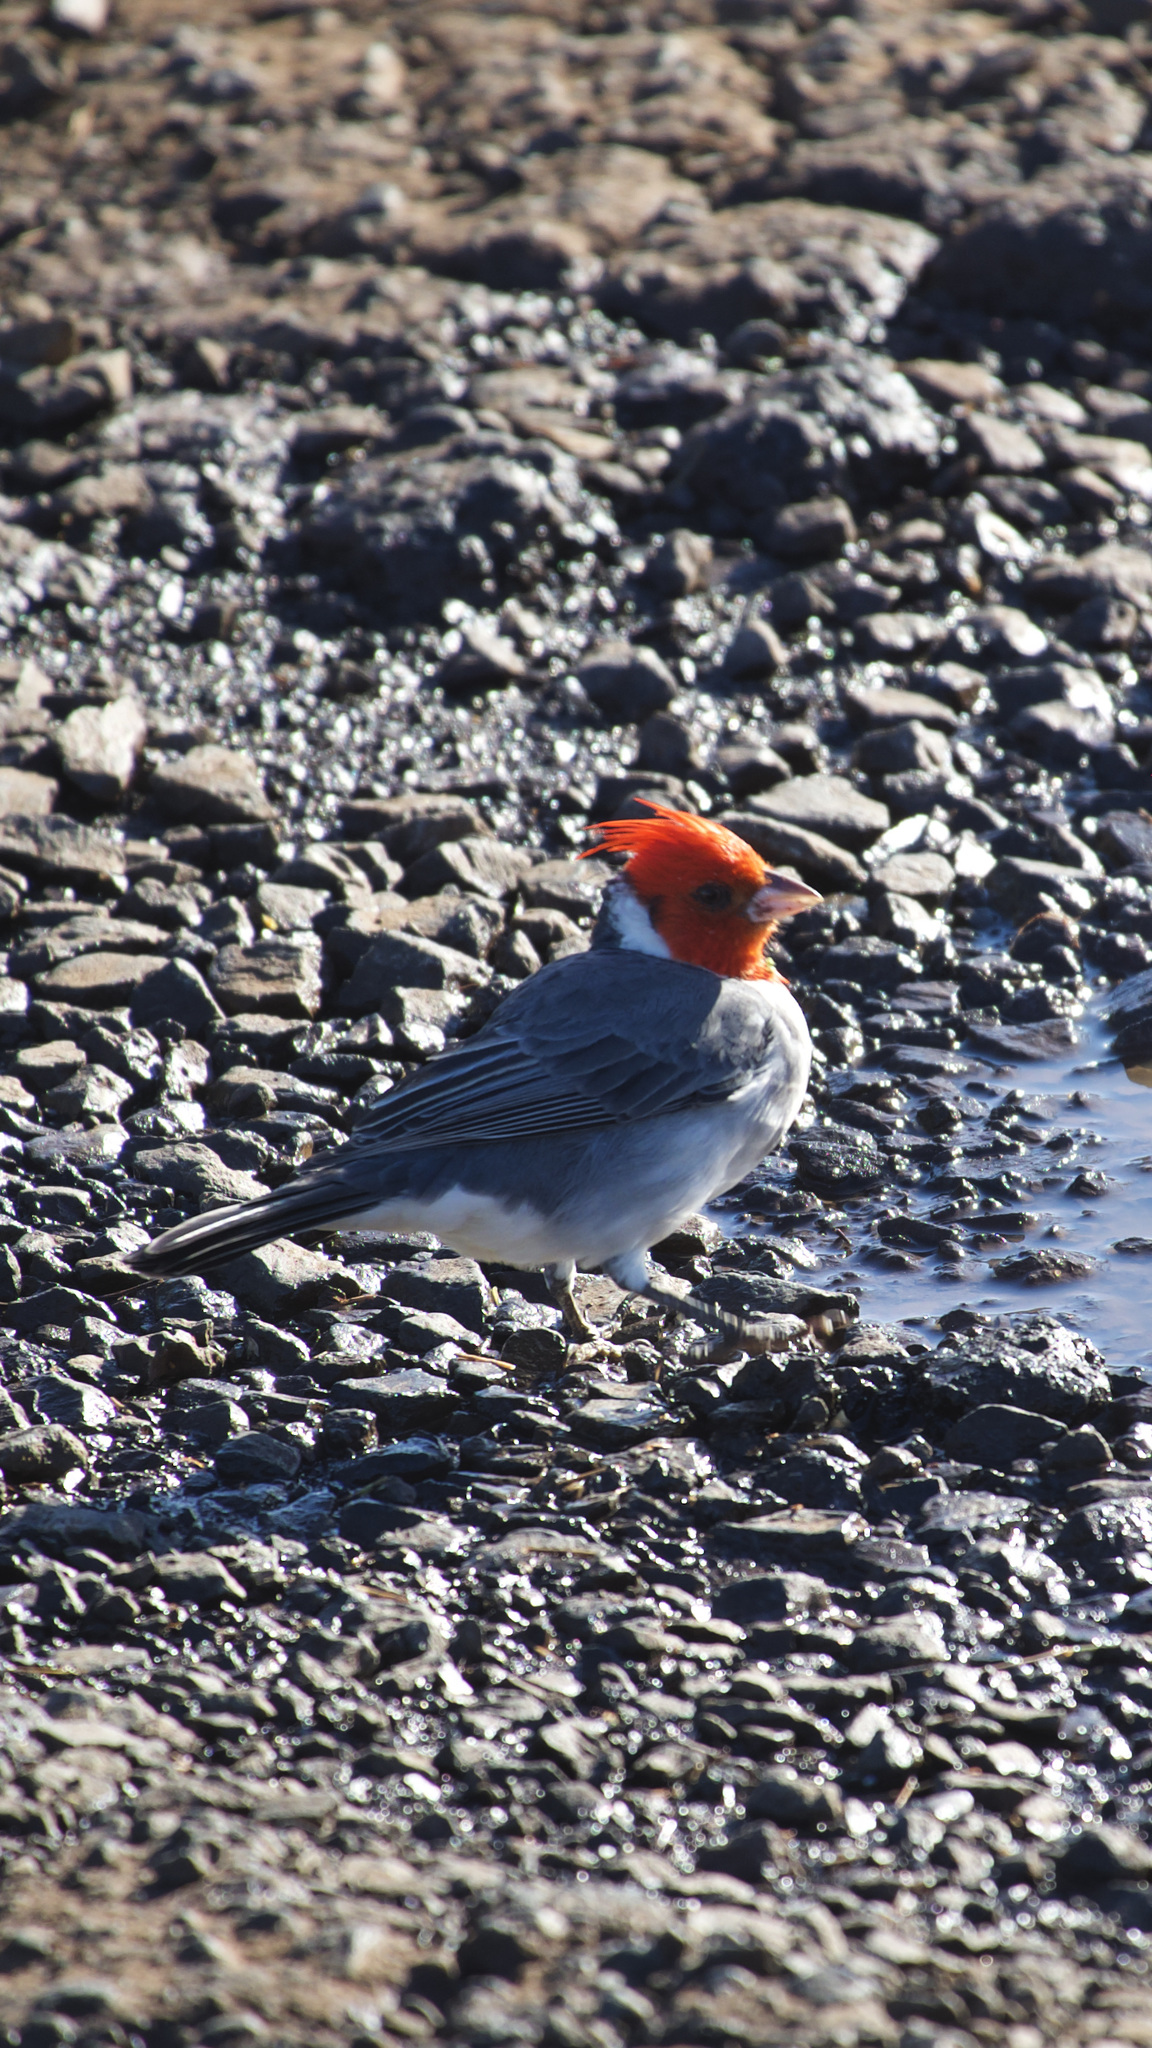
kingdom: Animalia
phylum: Chordata
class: Aves
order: Passeriformes
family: Thraupidae
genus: Paroaria
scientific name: Paroaria coronata
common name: Red-crested cardinal
